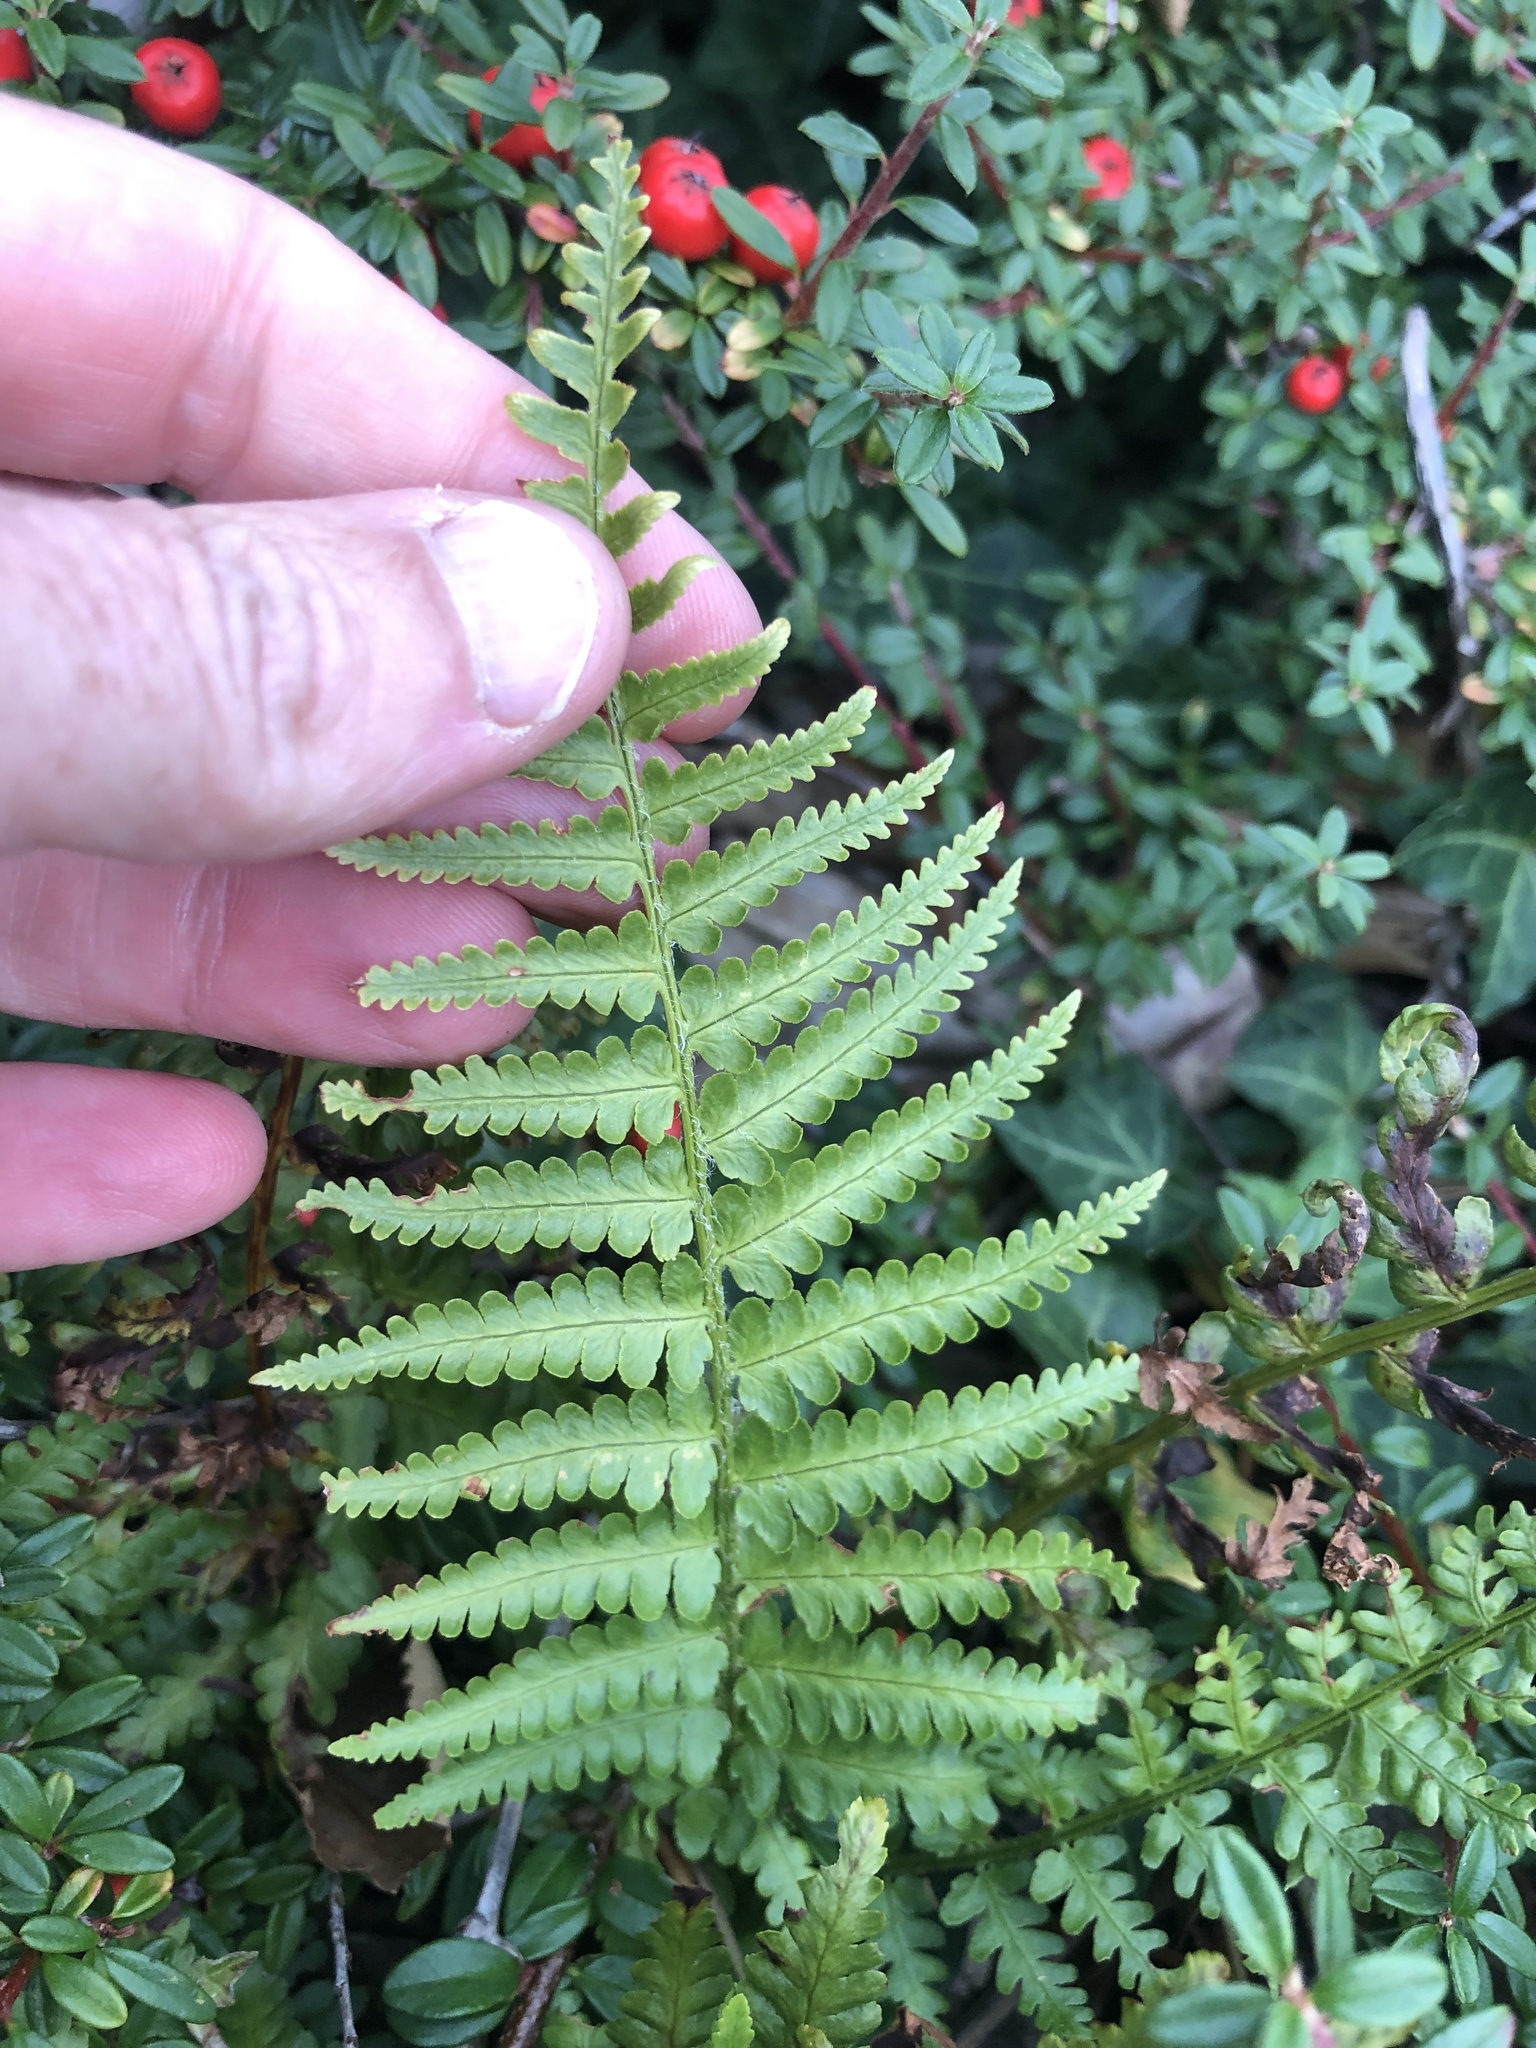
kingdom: Plantae
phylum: Tracheophyta
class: Polypodiopsida
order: Polypodiales
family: Dryopteridaceae
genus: Dryopteris
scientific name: Dryopteris filix-mas
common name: Male fern
